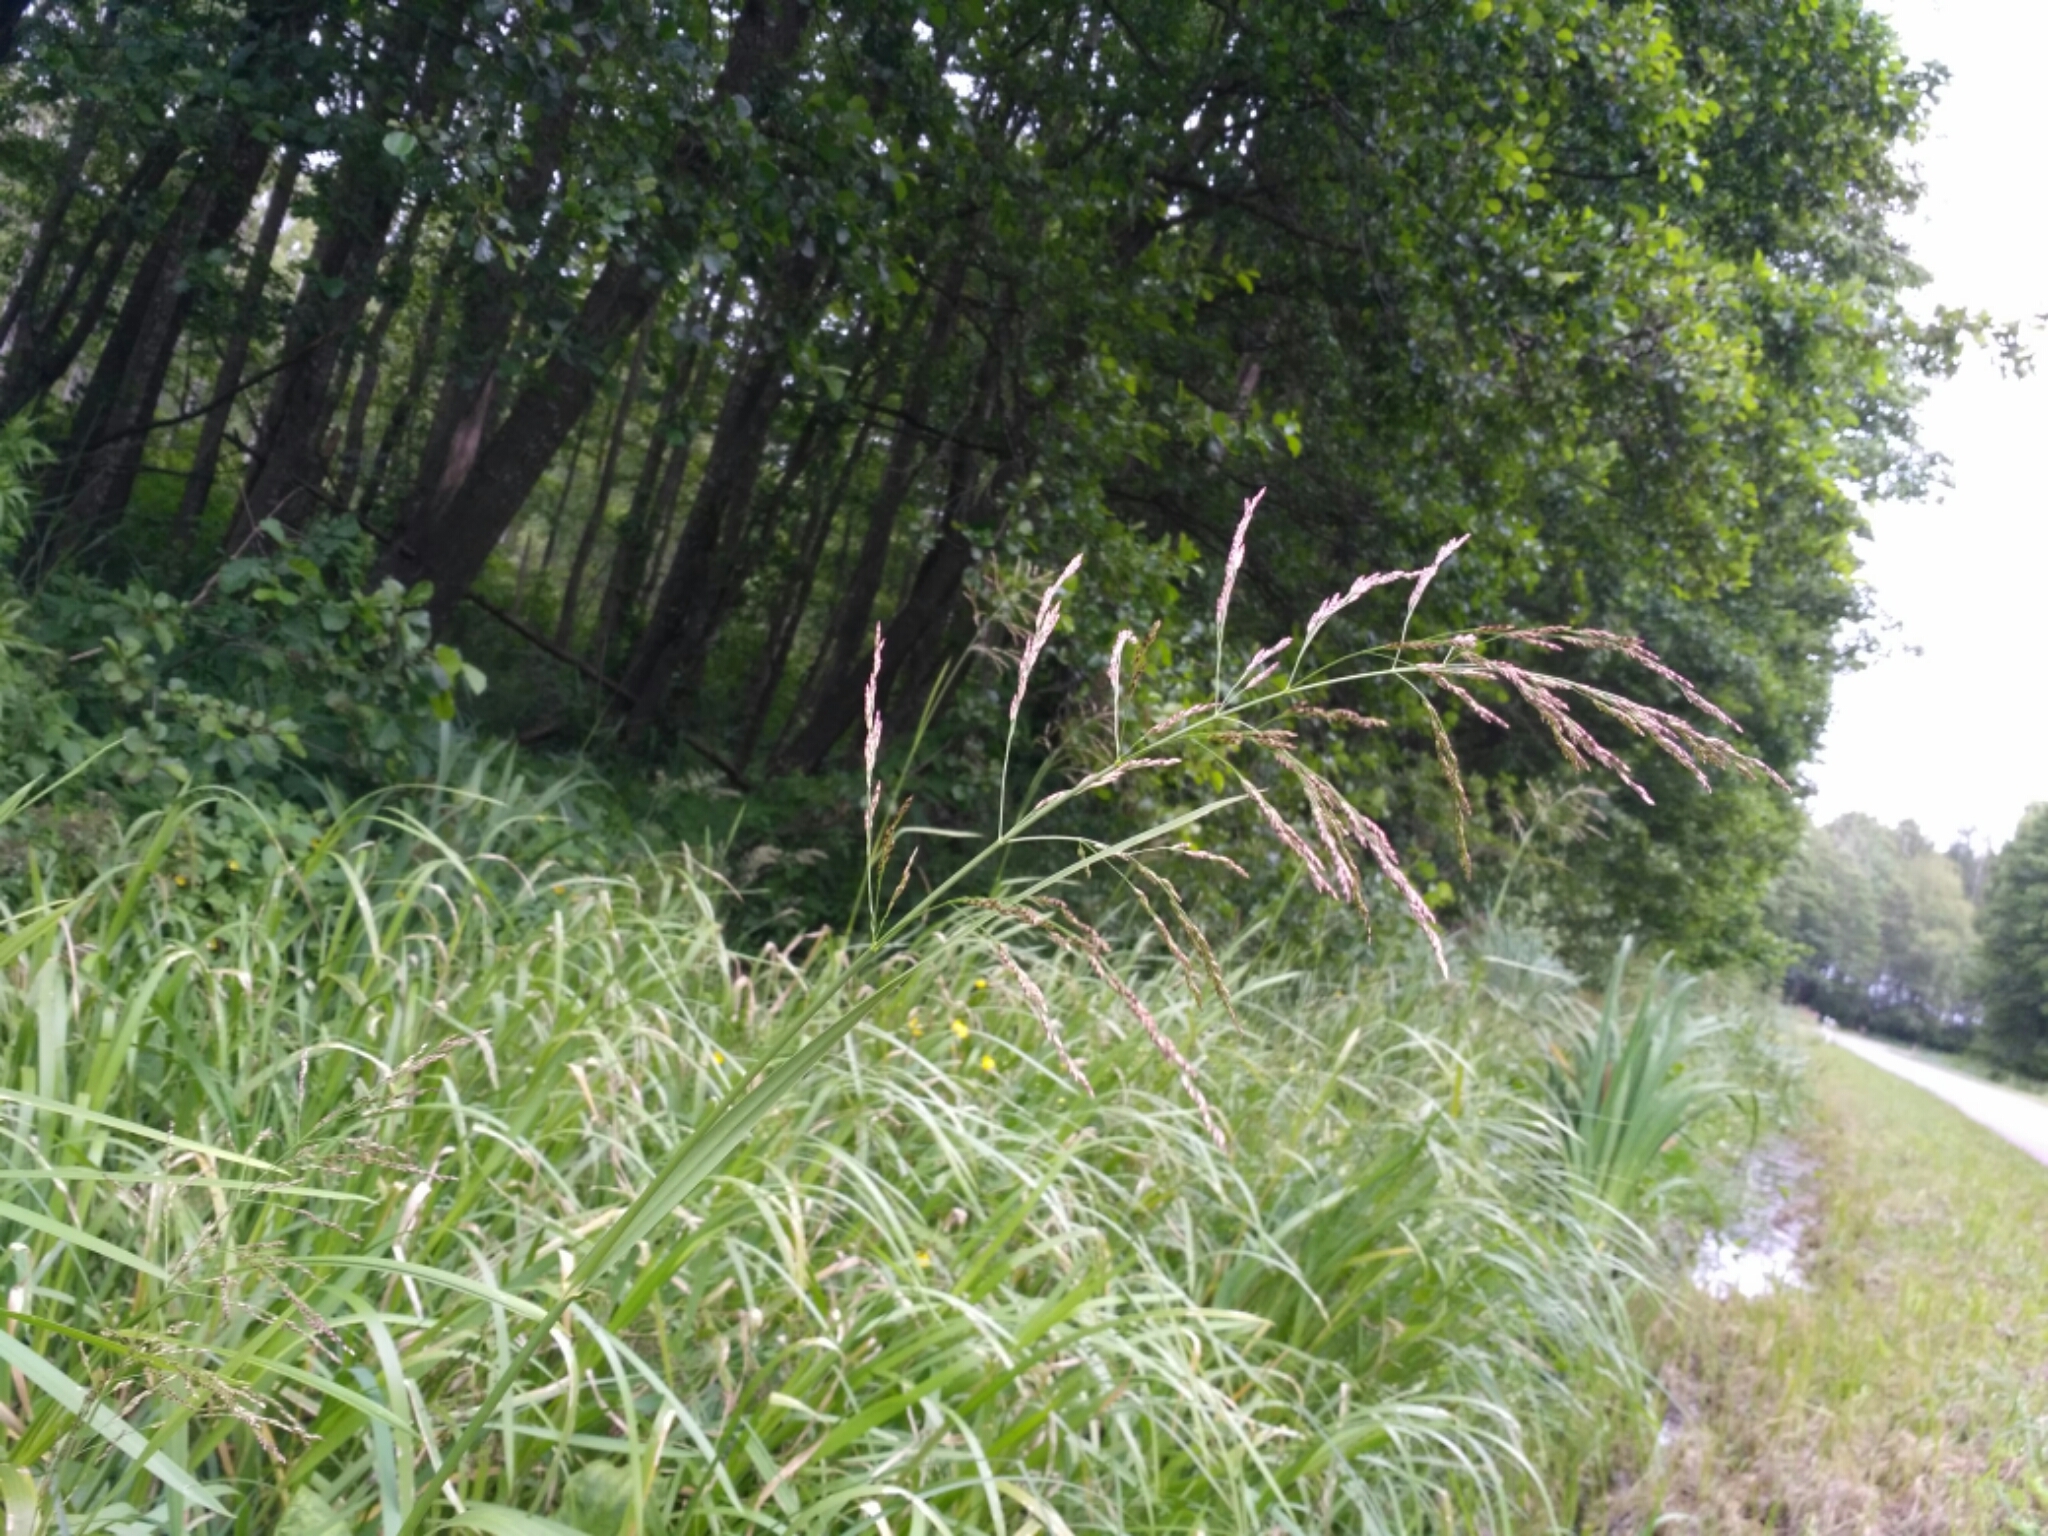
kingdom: Plantae
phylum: Tracheophyta
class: Liliopsida
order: Poales
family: Poaceae
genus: Glyceria
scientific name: Glyceria maxima
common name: Reed mannagrass
